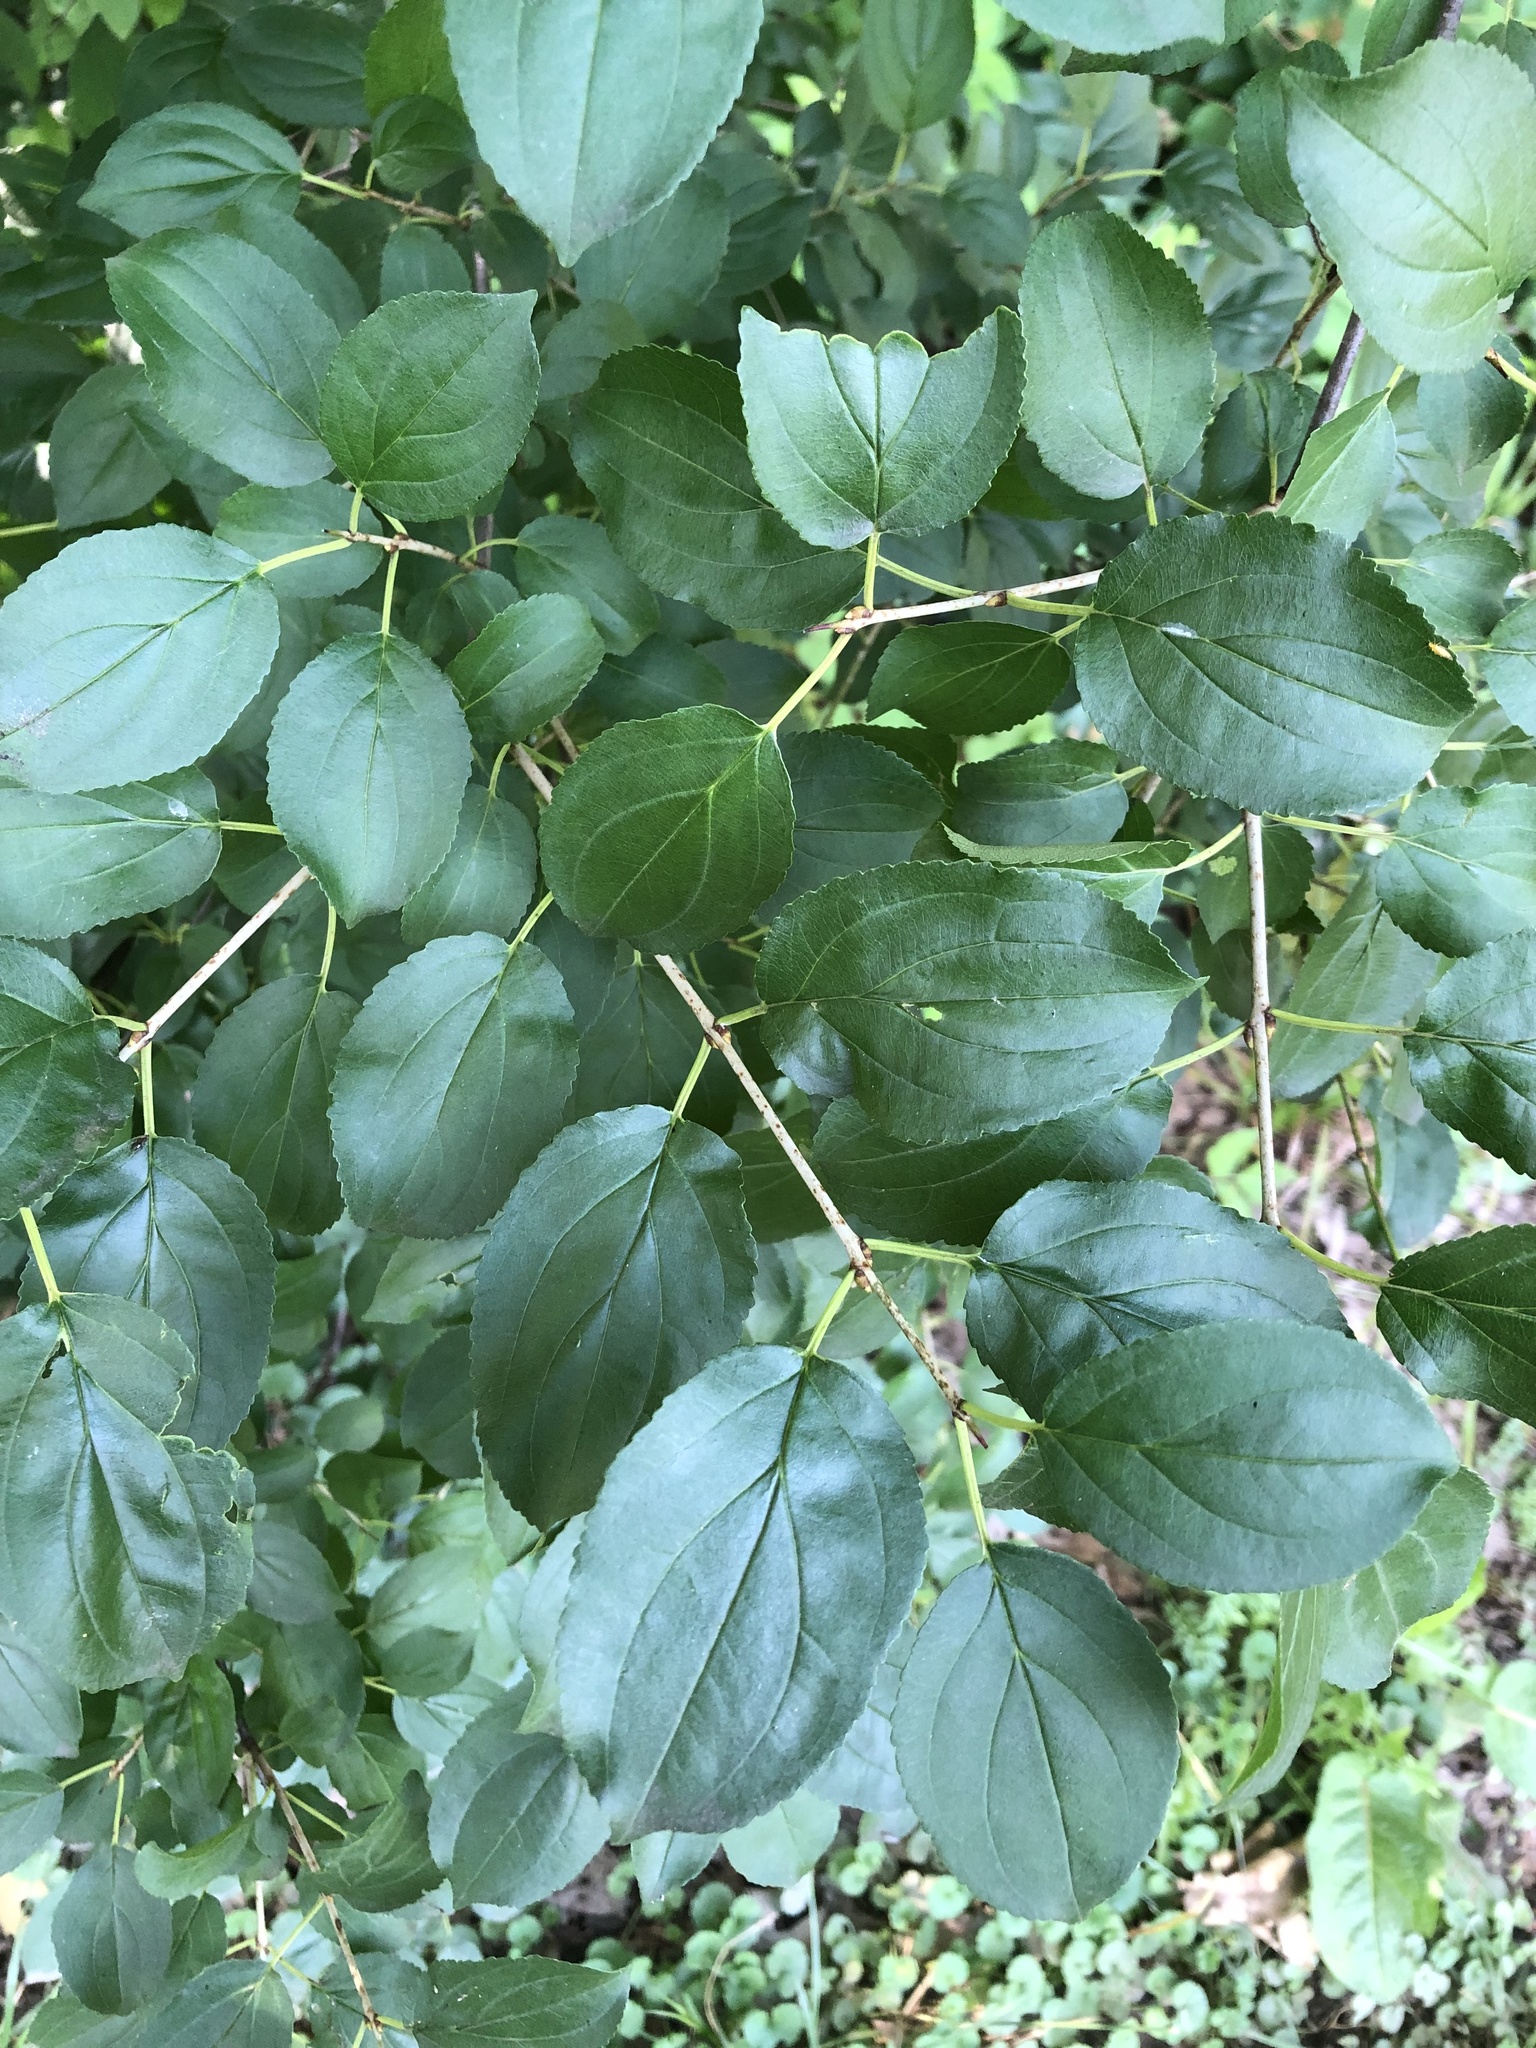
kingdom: Plantae
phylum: Tracheophyta
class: Magnoliopsida
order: Rosales
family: Rhamnaceae
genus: Rhamnus
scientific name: Rhamnus cathartica
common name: Common buckthorn
